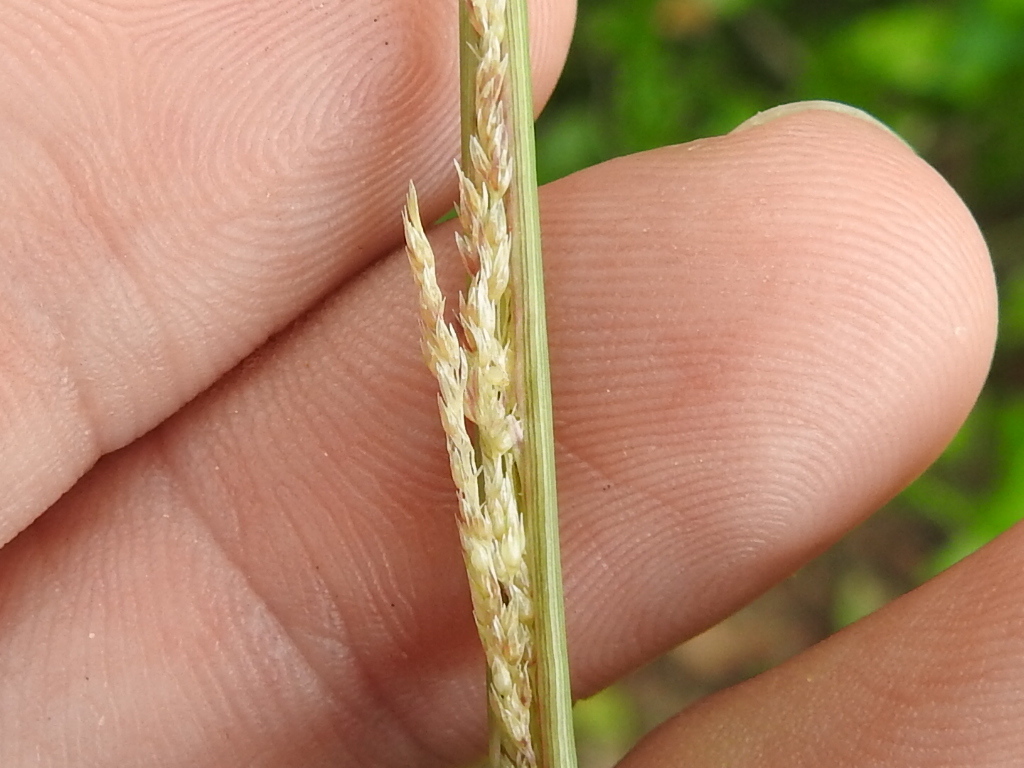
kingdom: Plantae
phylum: Tracheophyta
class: Liliopsida
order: Poales
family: Poaceae
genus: Sporobolus
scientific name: Sporobolus cryptandrus
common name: Sand dropseed
